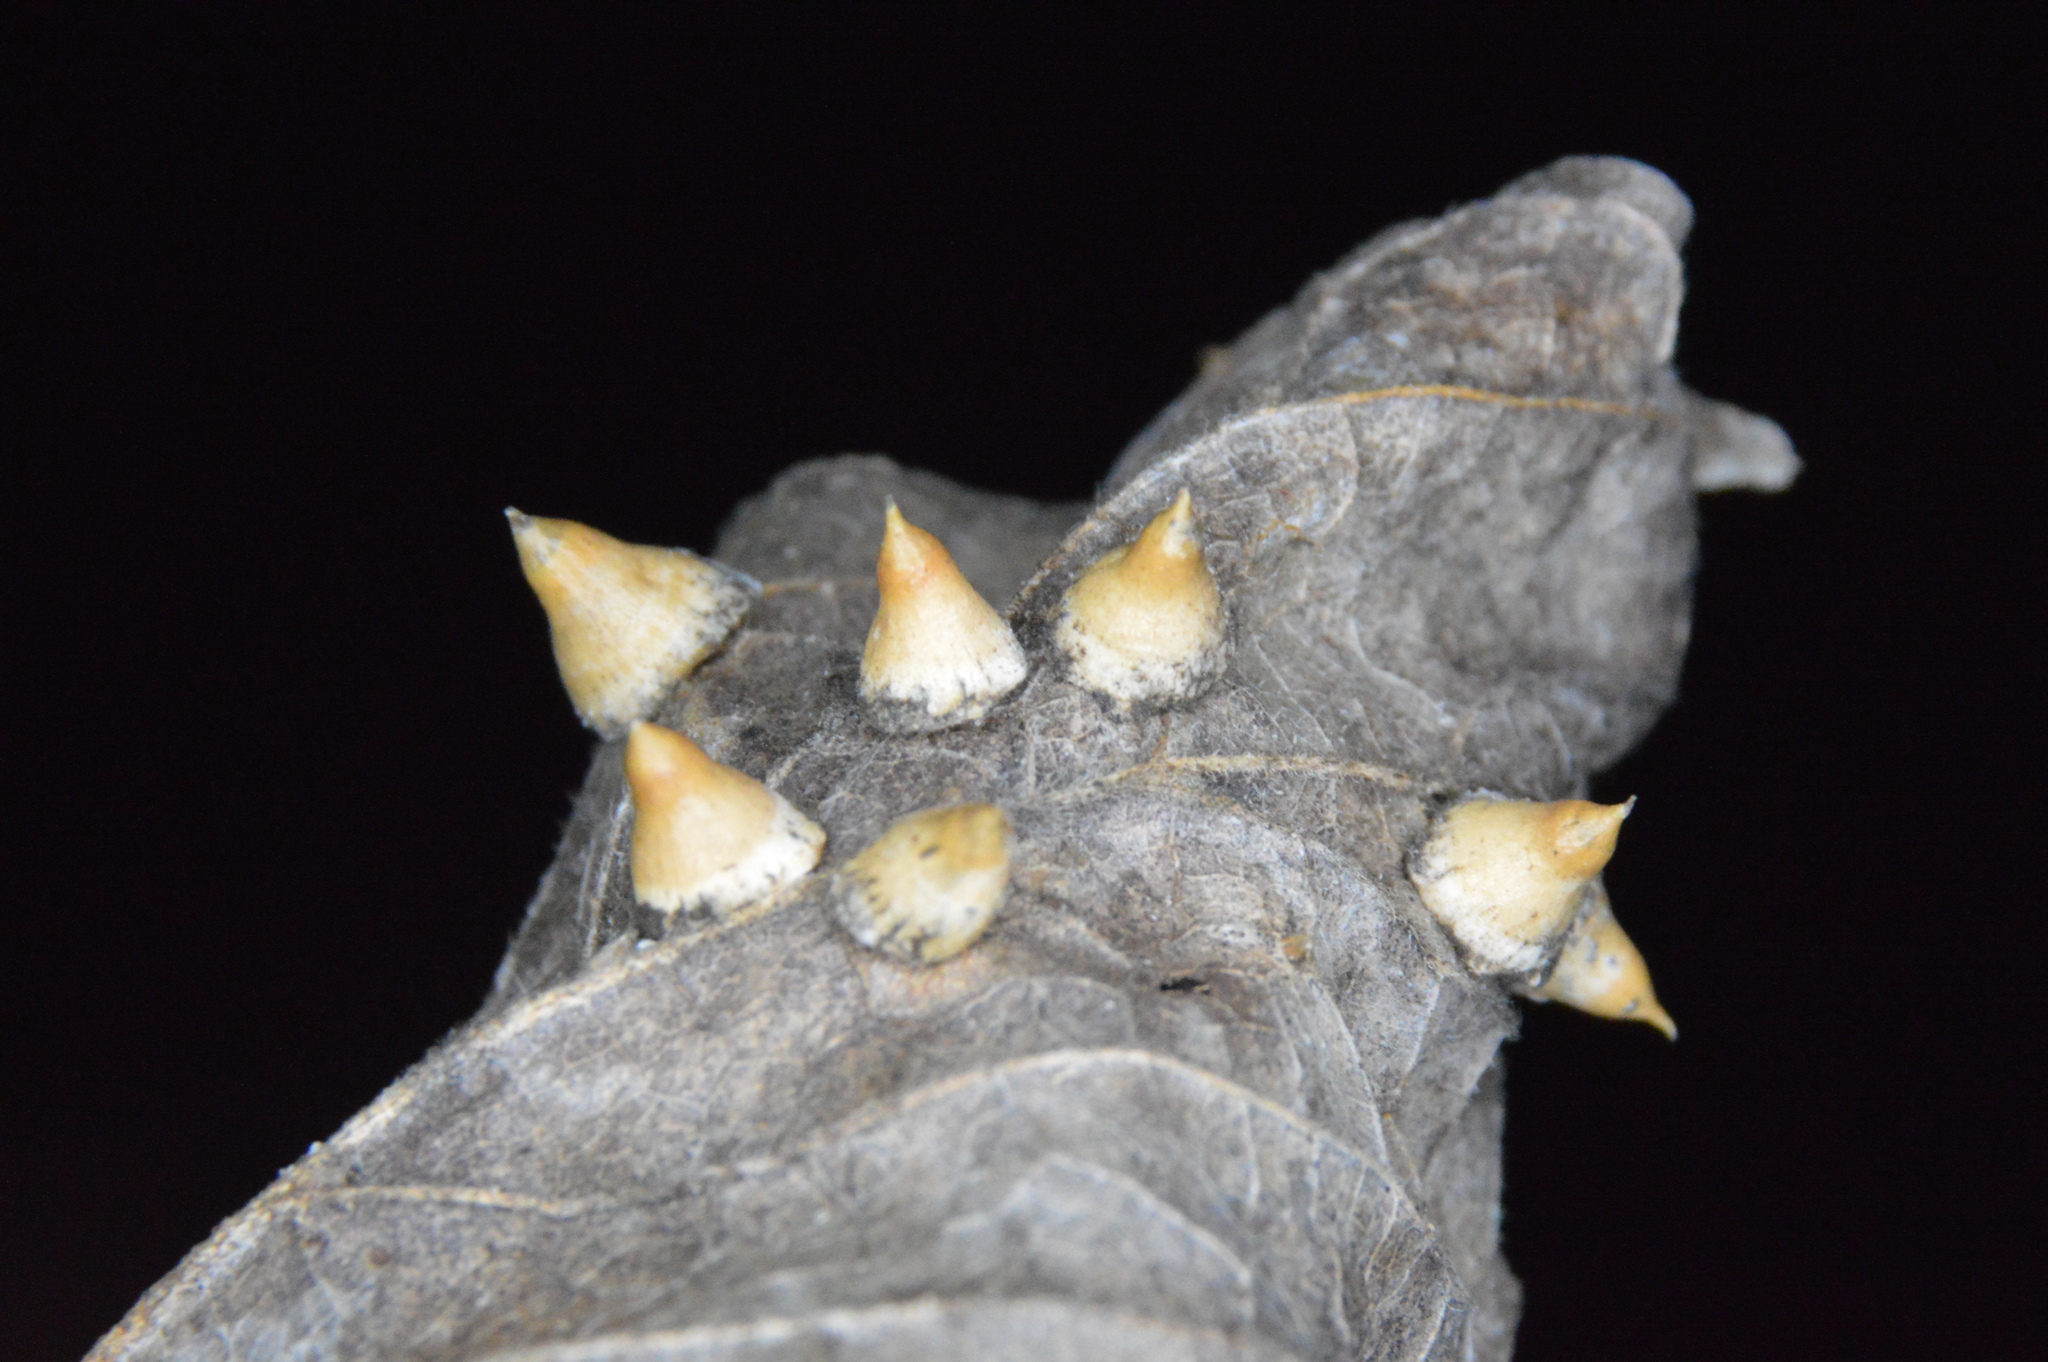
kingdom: Animalia
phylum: Arthropoda
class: Insecta
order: Diptera
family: Cecidomyiidae
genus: Celticecis
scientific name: Celticecis spiniformis
